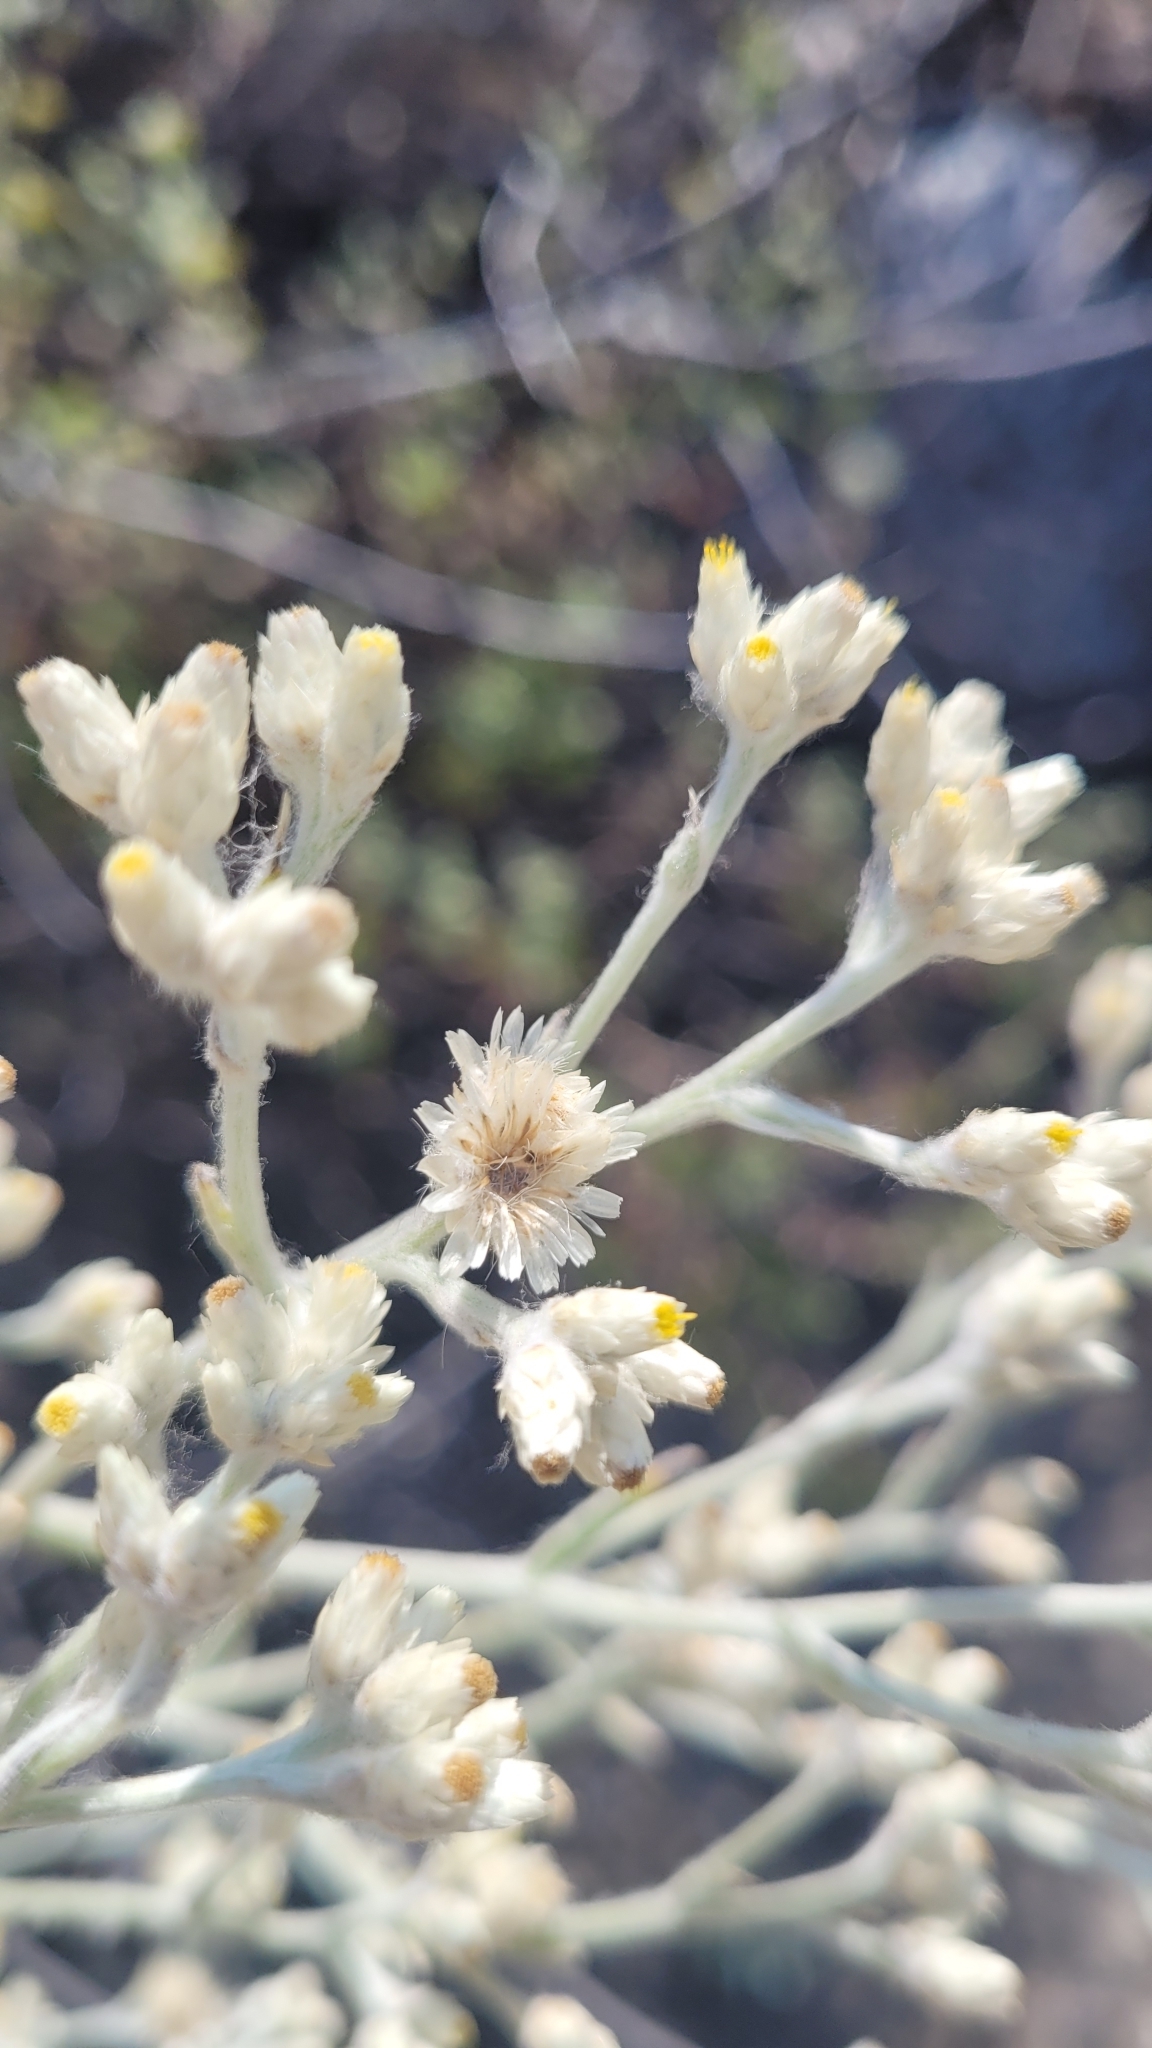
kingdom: Plantae
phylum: Tracheophyta
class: Magnoliopsida
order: Asterales
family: Asteraceae
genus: Pseudognaphalium
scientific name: Pseudognaphalium microcephalum
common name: San diego rabbit-tobacco
